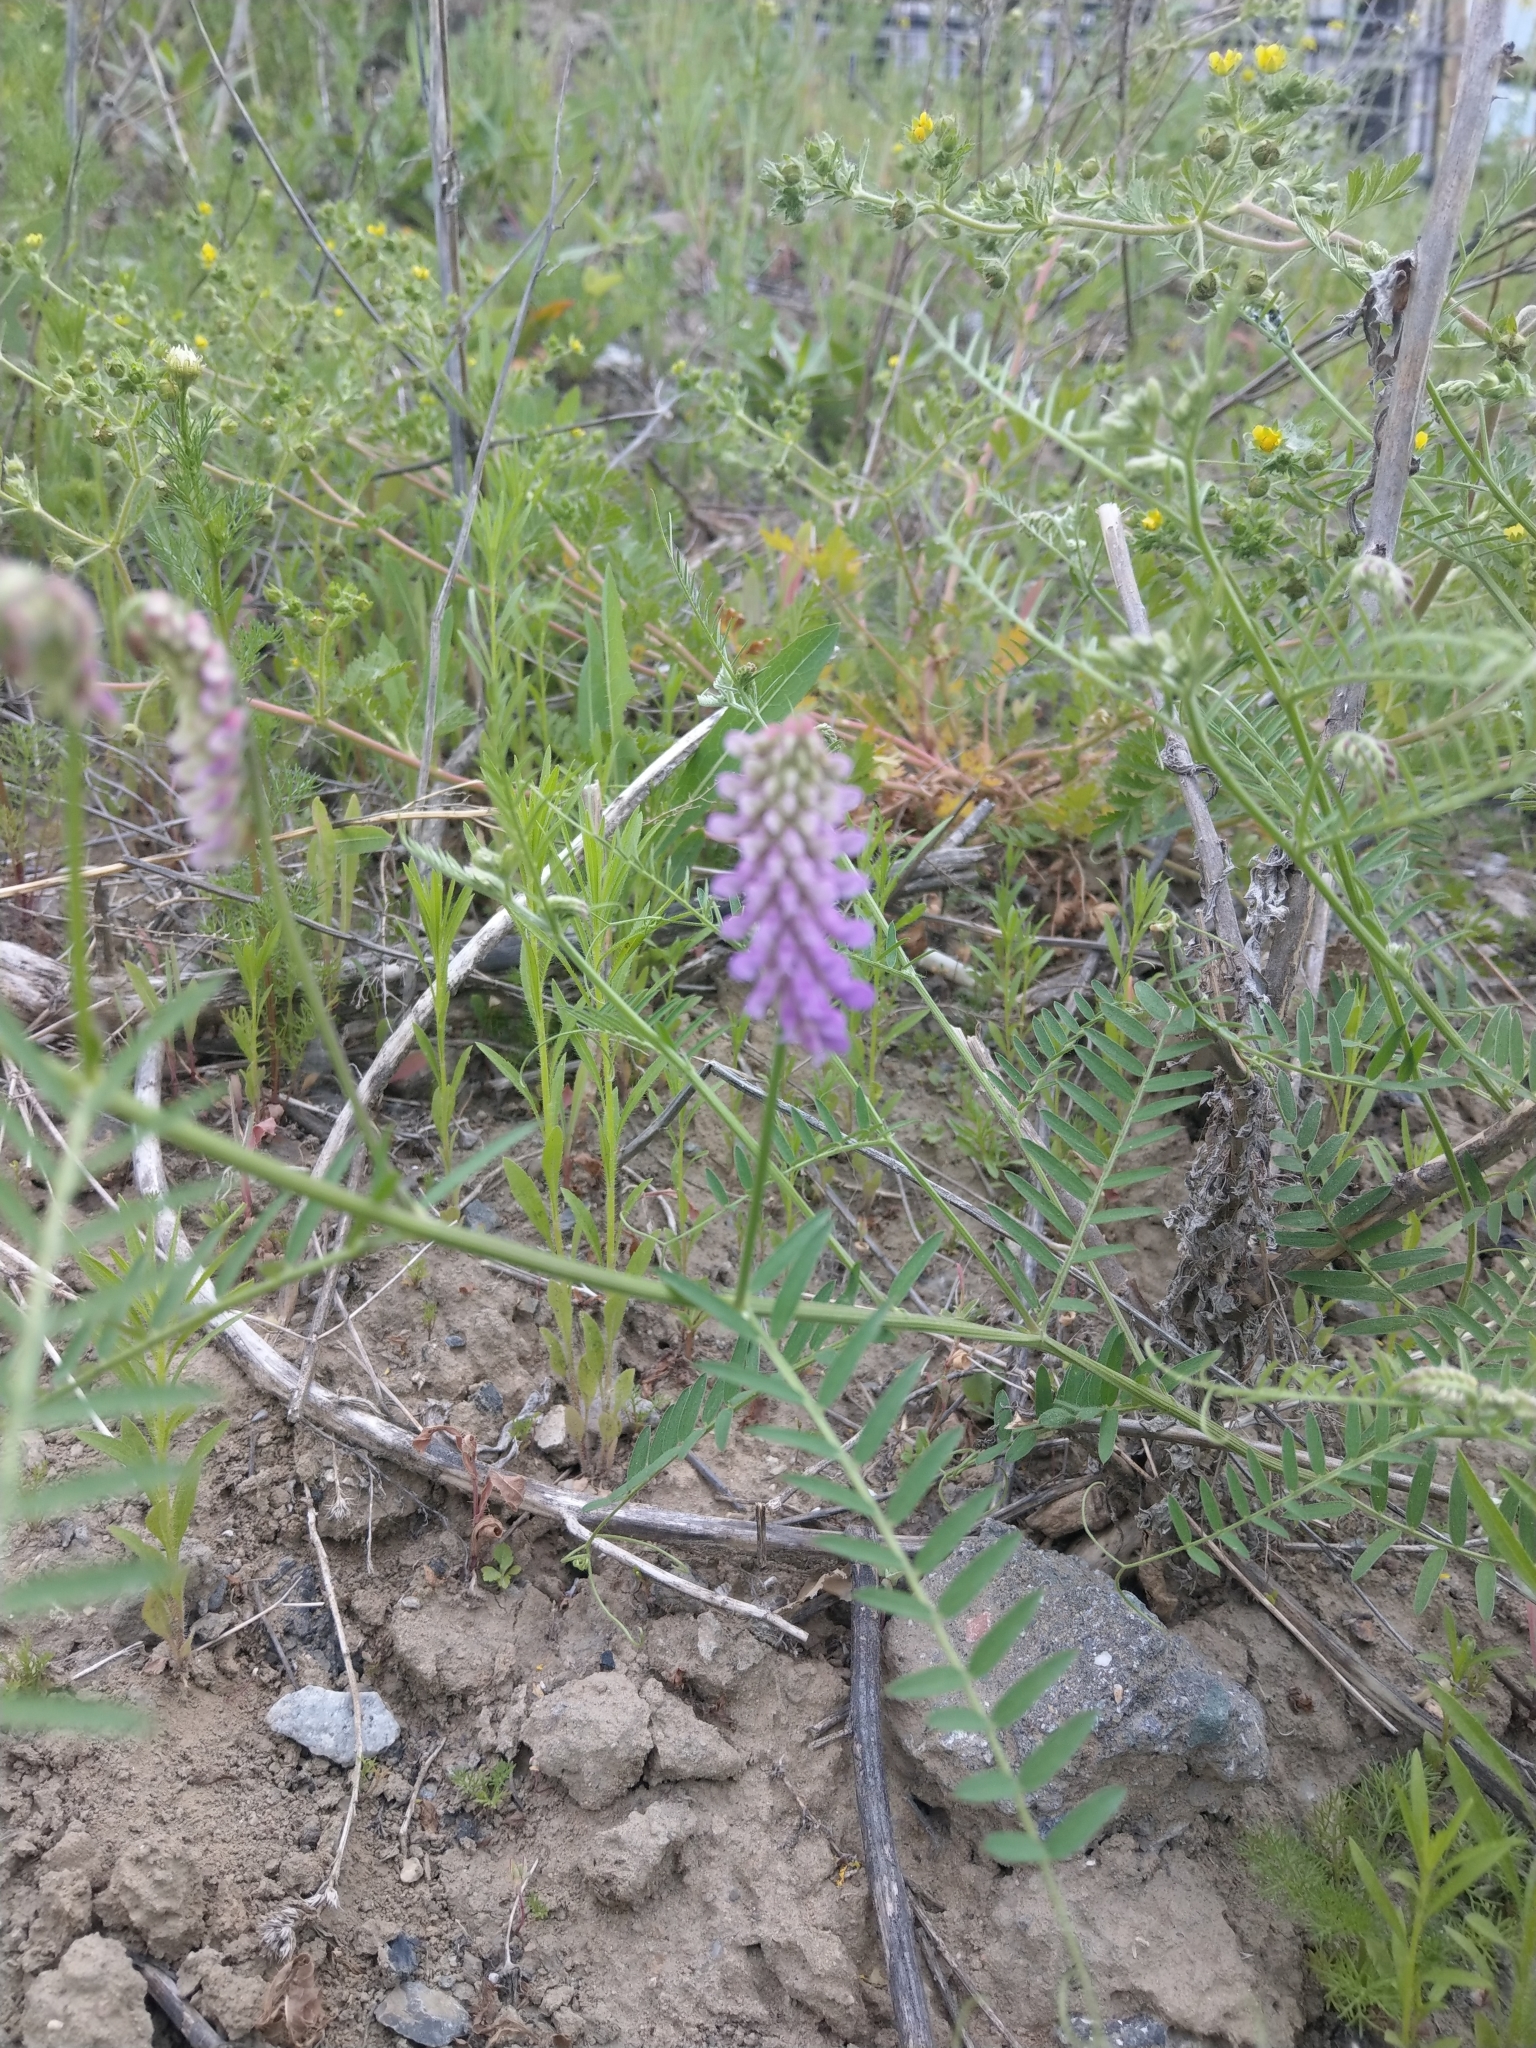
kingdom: Plantae
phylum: Tracheophyta
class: Magnoliopsida
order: Fabales
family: Fabaceae
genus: Vicia
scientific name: Vicia cracca
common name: Bird vetch
